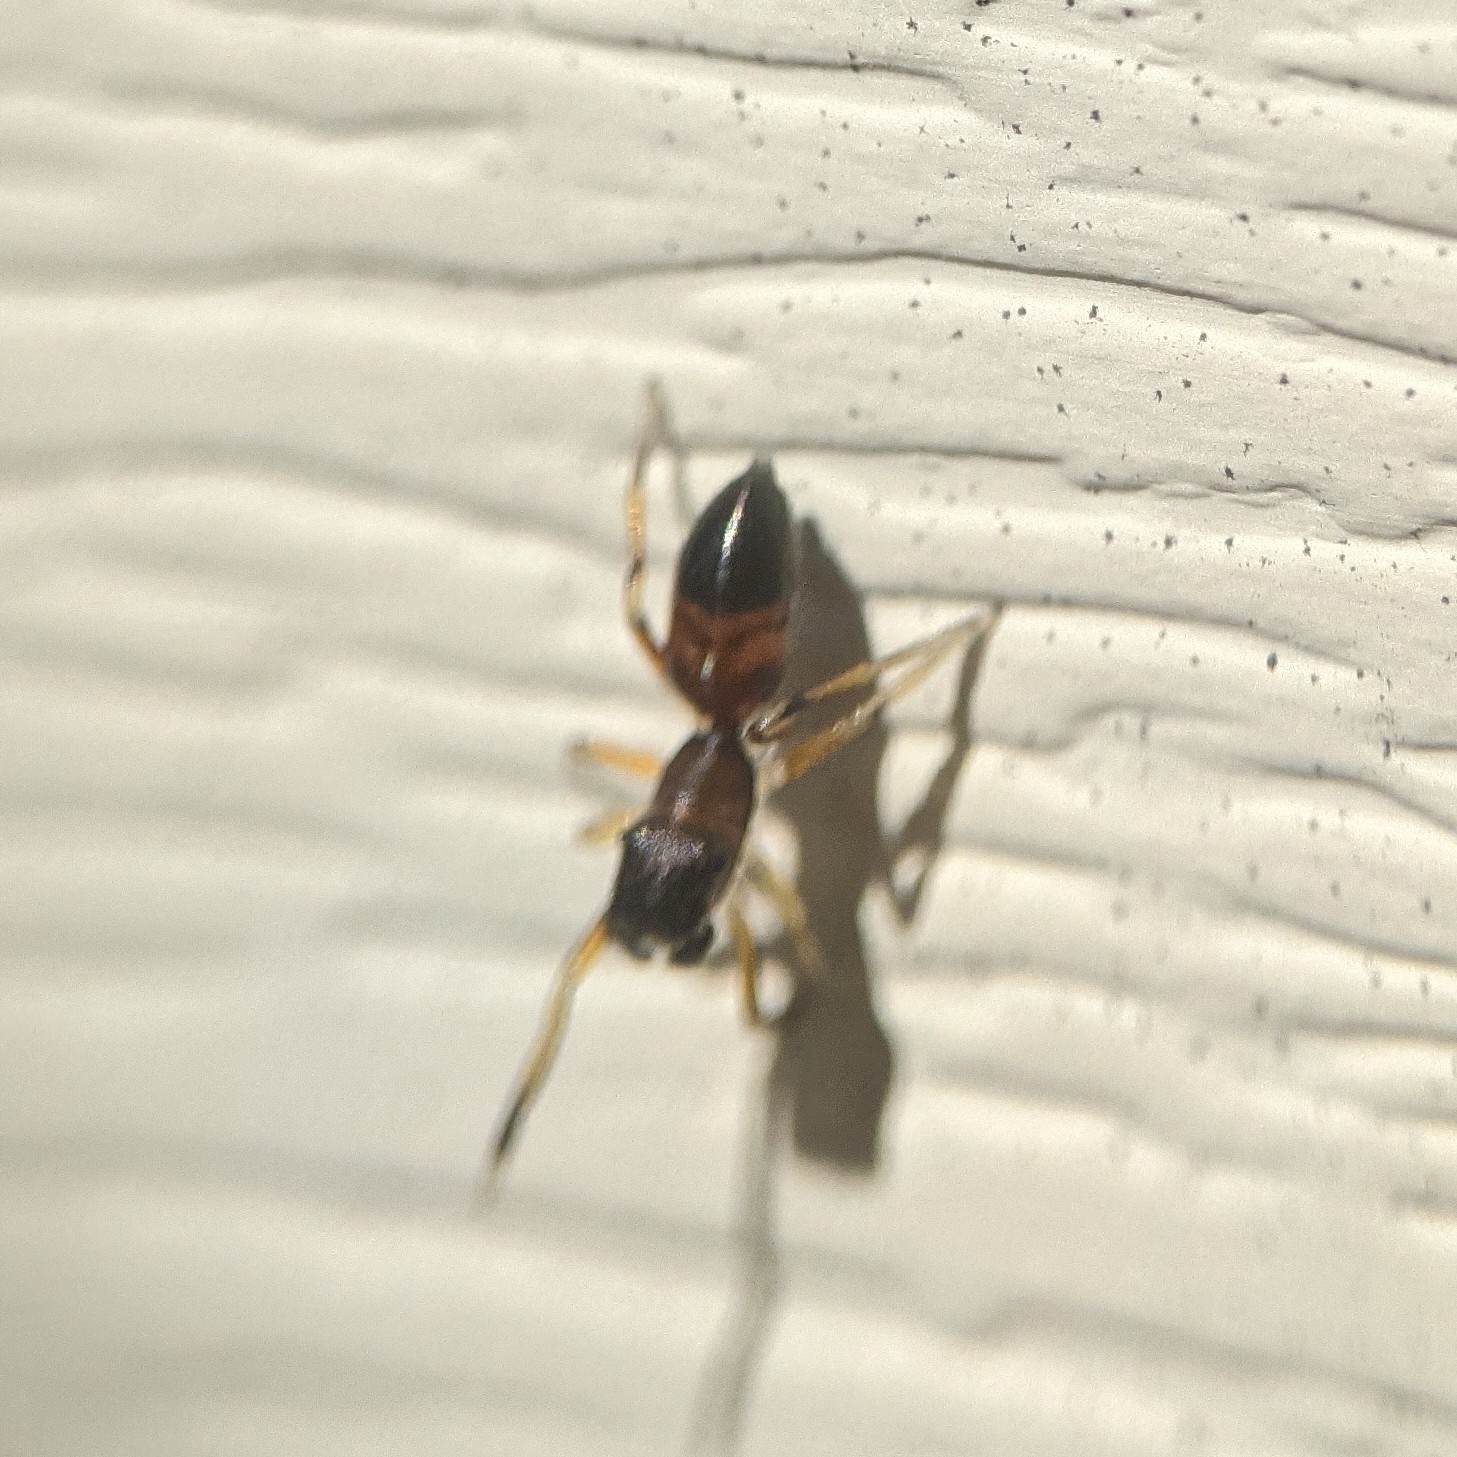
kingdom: Animalia
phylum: Arthropoda
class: Arachnida
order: Araneae
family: Salticidae
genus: Myrmarachne
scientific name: Myrmarachne formicaria
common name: Ant mimic jumping spider
